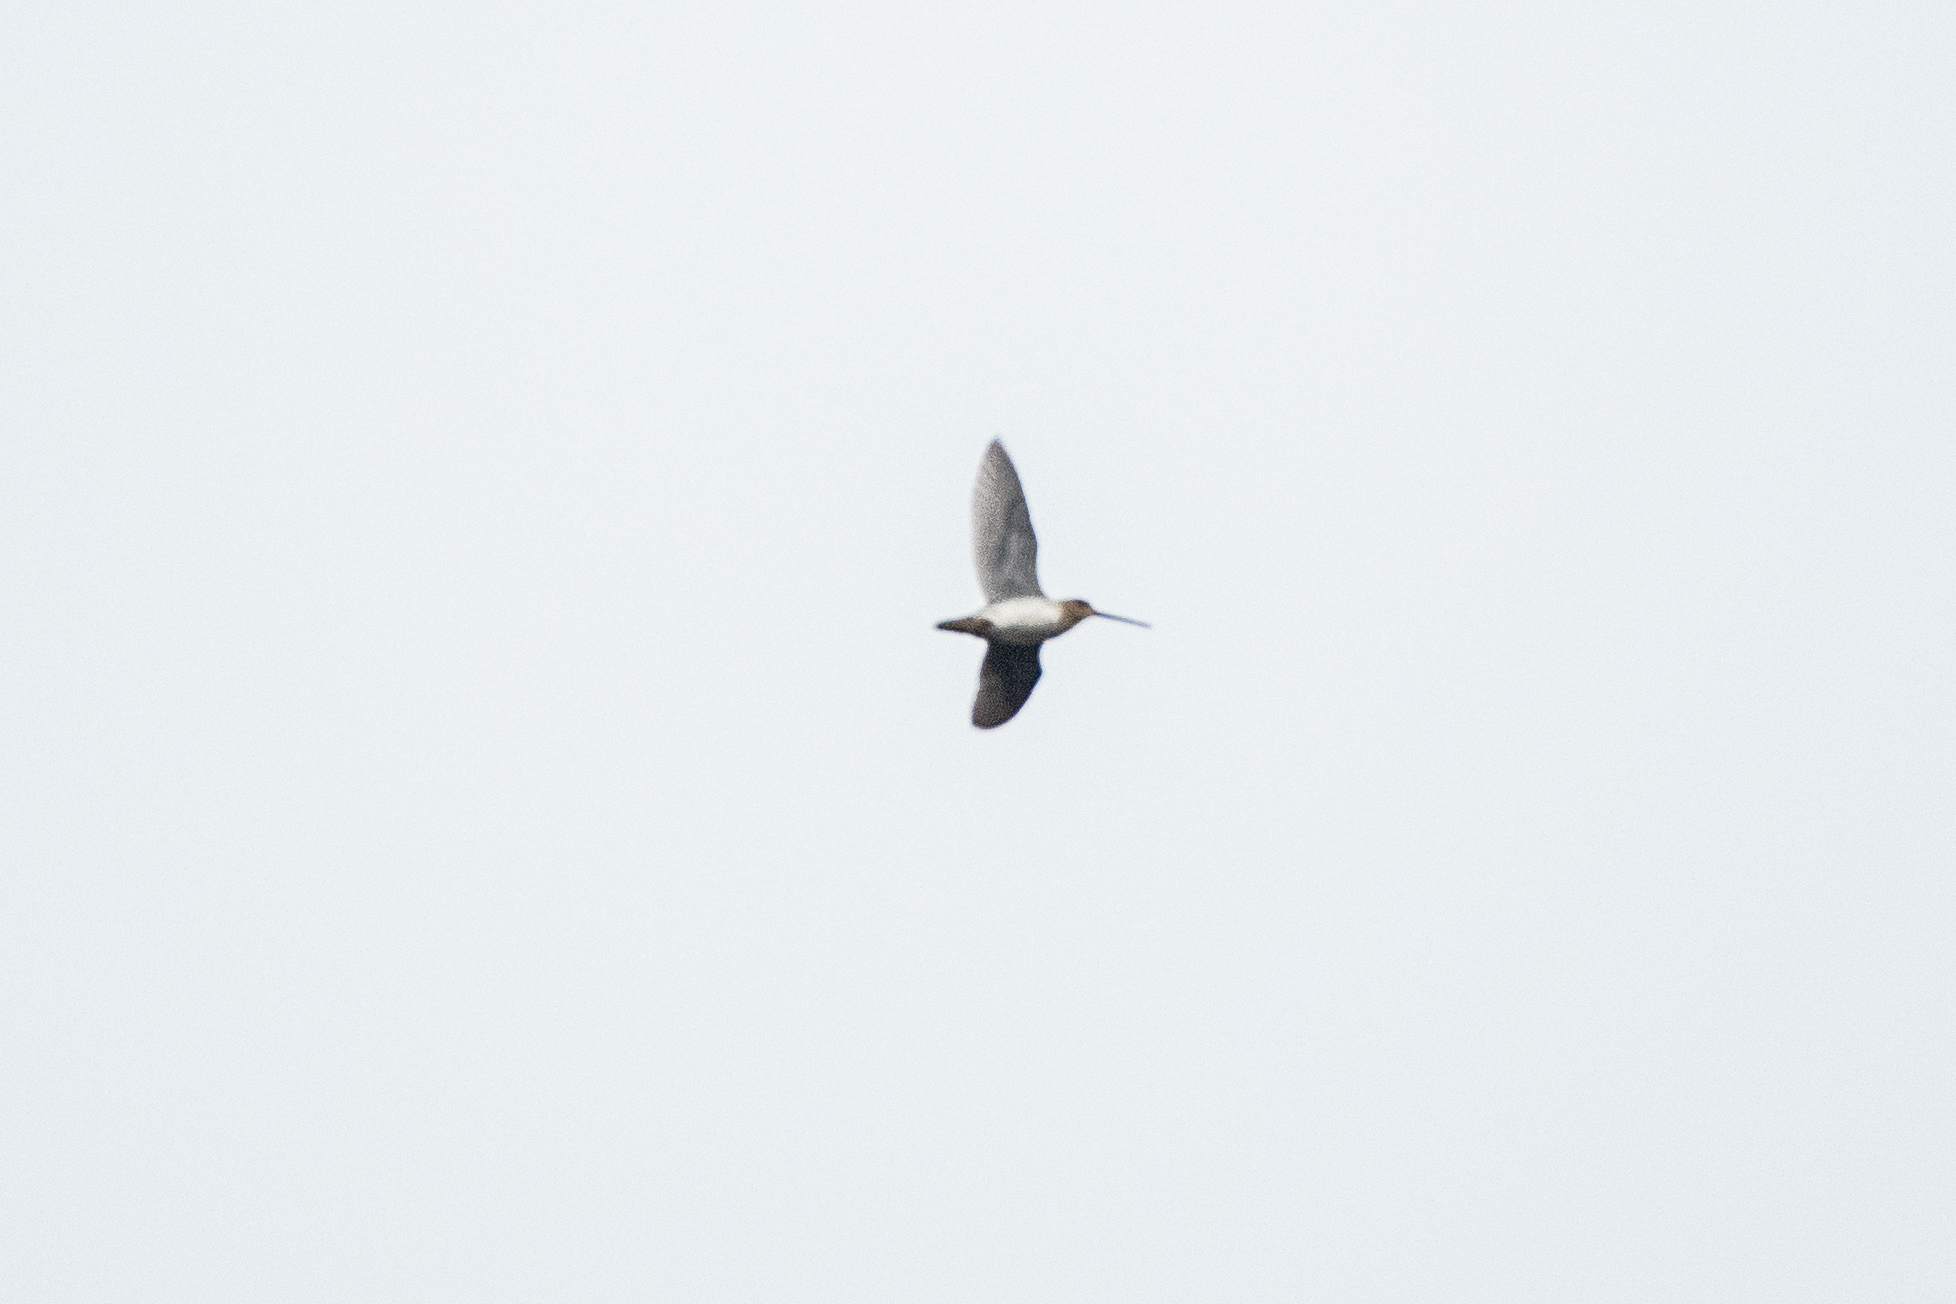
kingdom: Animalia
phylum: Chordata
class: Aves
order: Charadriiformes
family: Scolopacidae
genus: Gallinago
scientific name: Gallinago delicata
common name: Wilson's snipe
